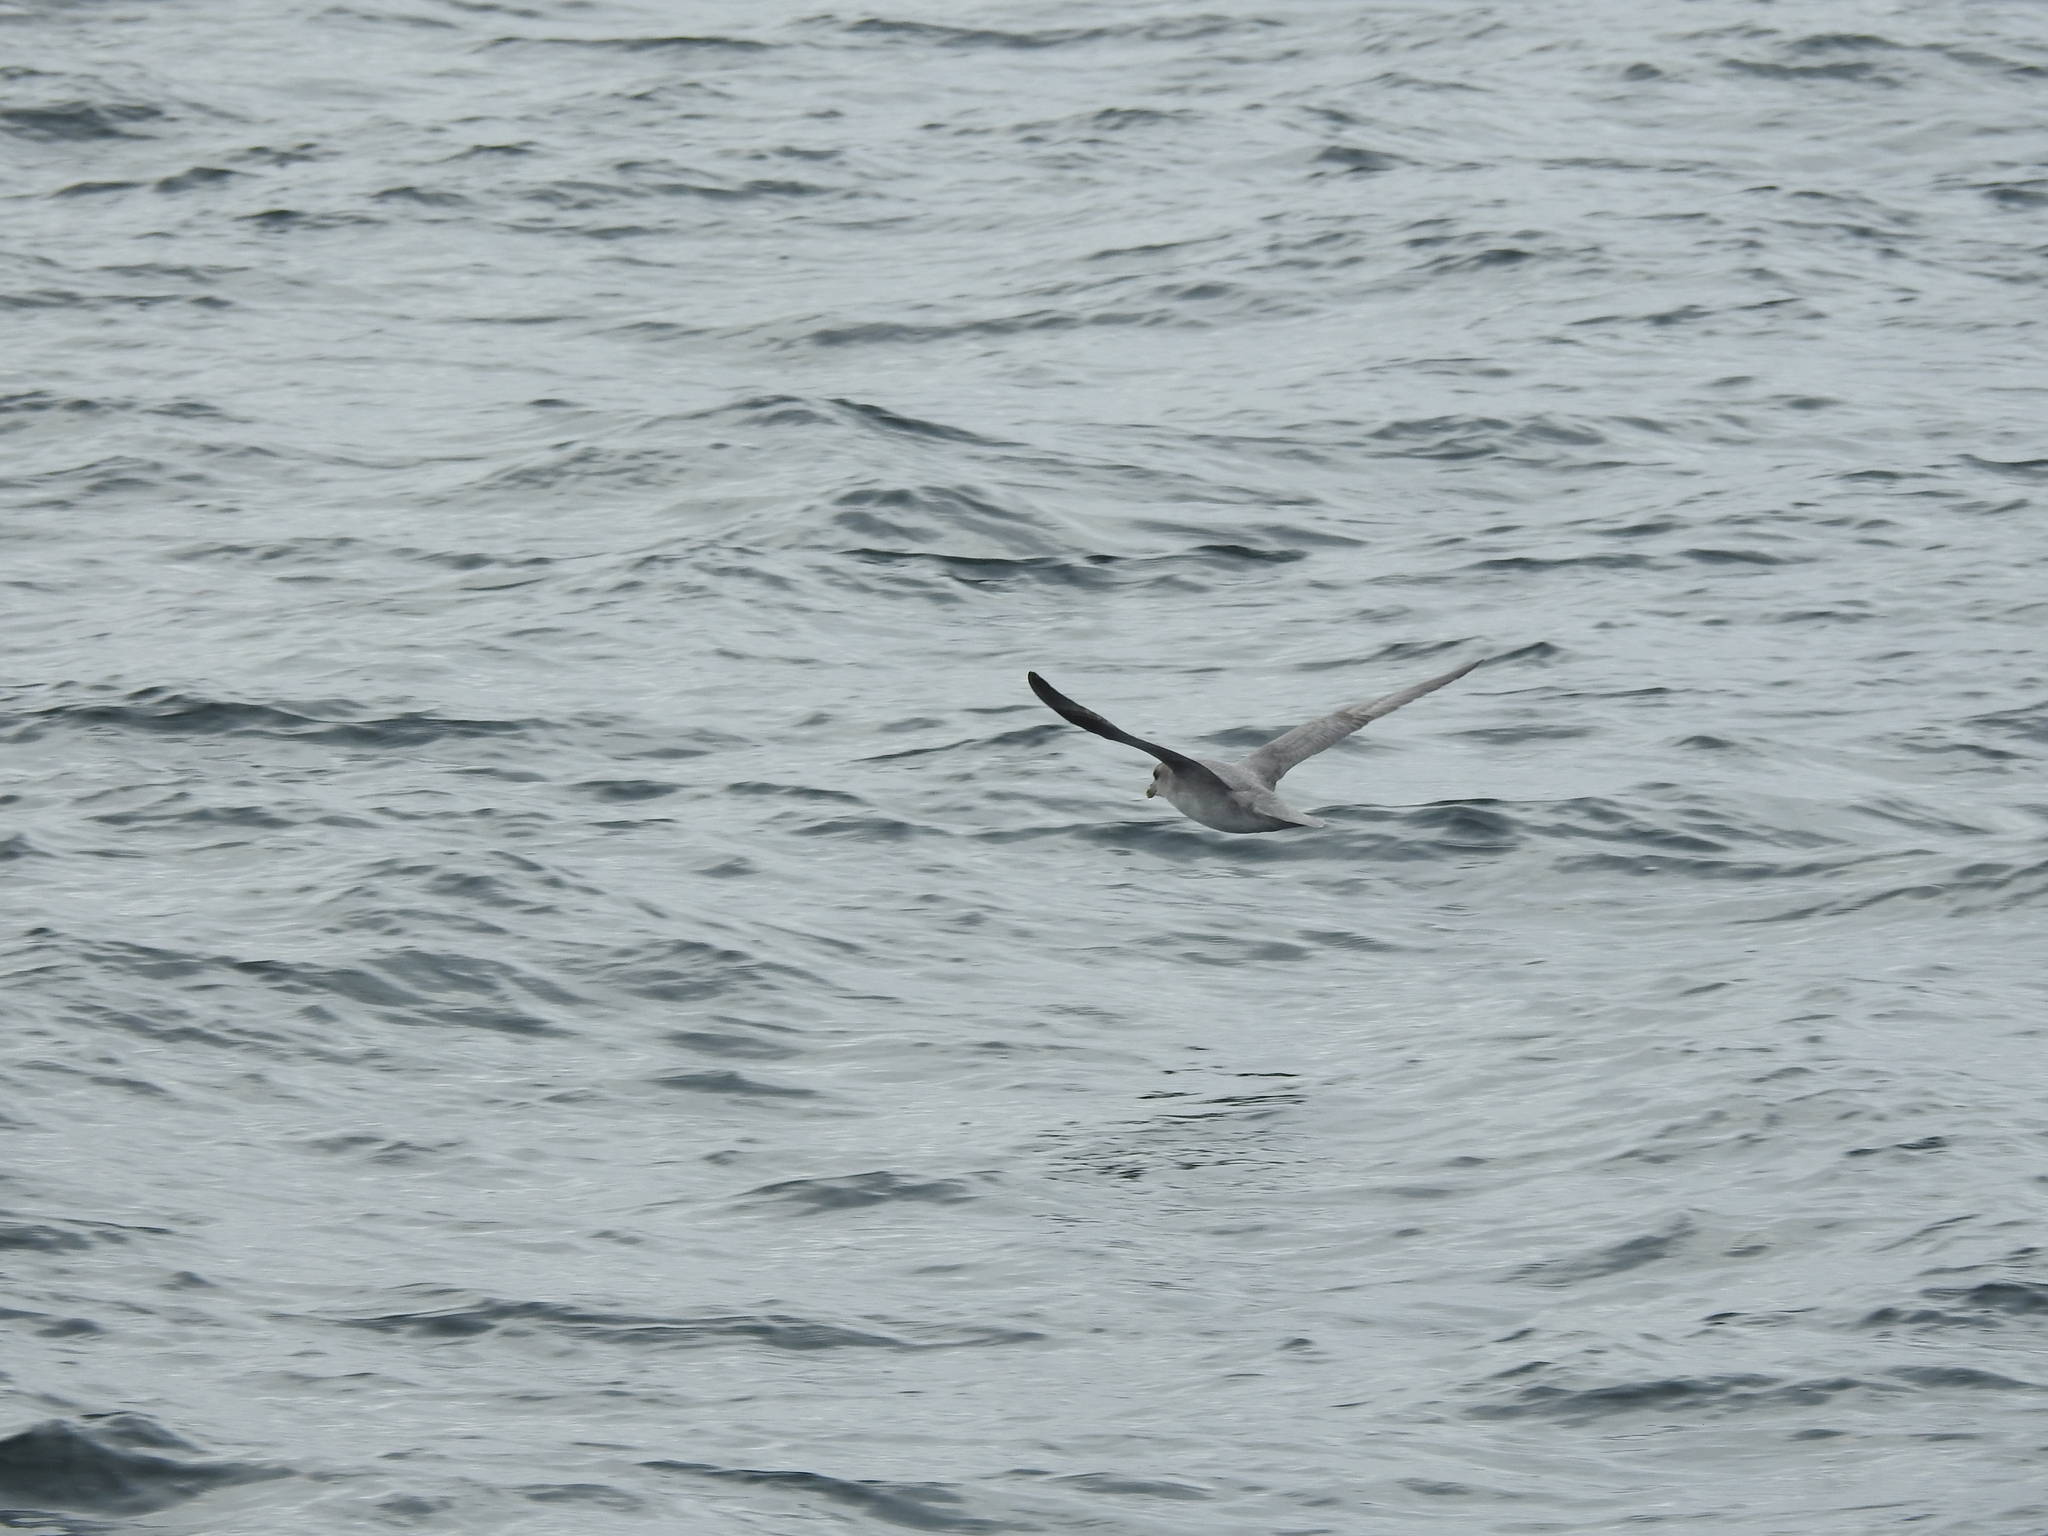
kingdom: Animalia
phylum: Chordata
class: Aves
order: Procellariiformes
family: Procellariidae
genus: Fulmarus
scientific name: Fulmarus glacialis
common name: Northern fulmar
